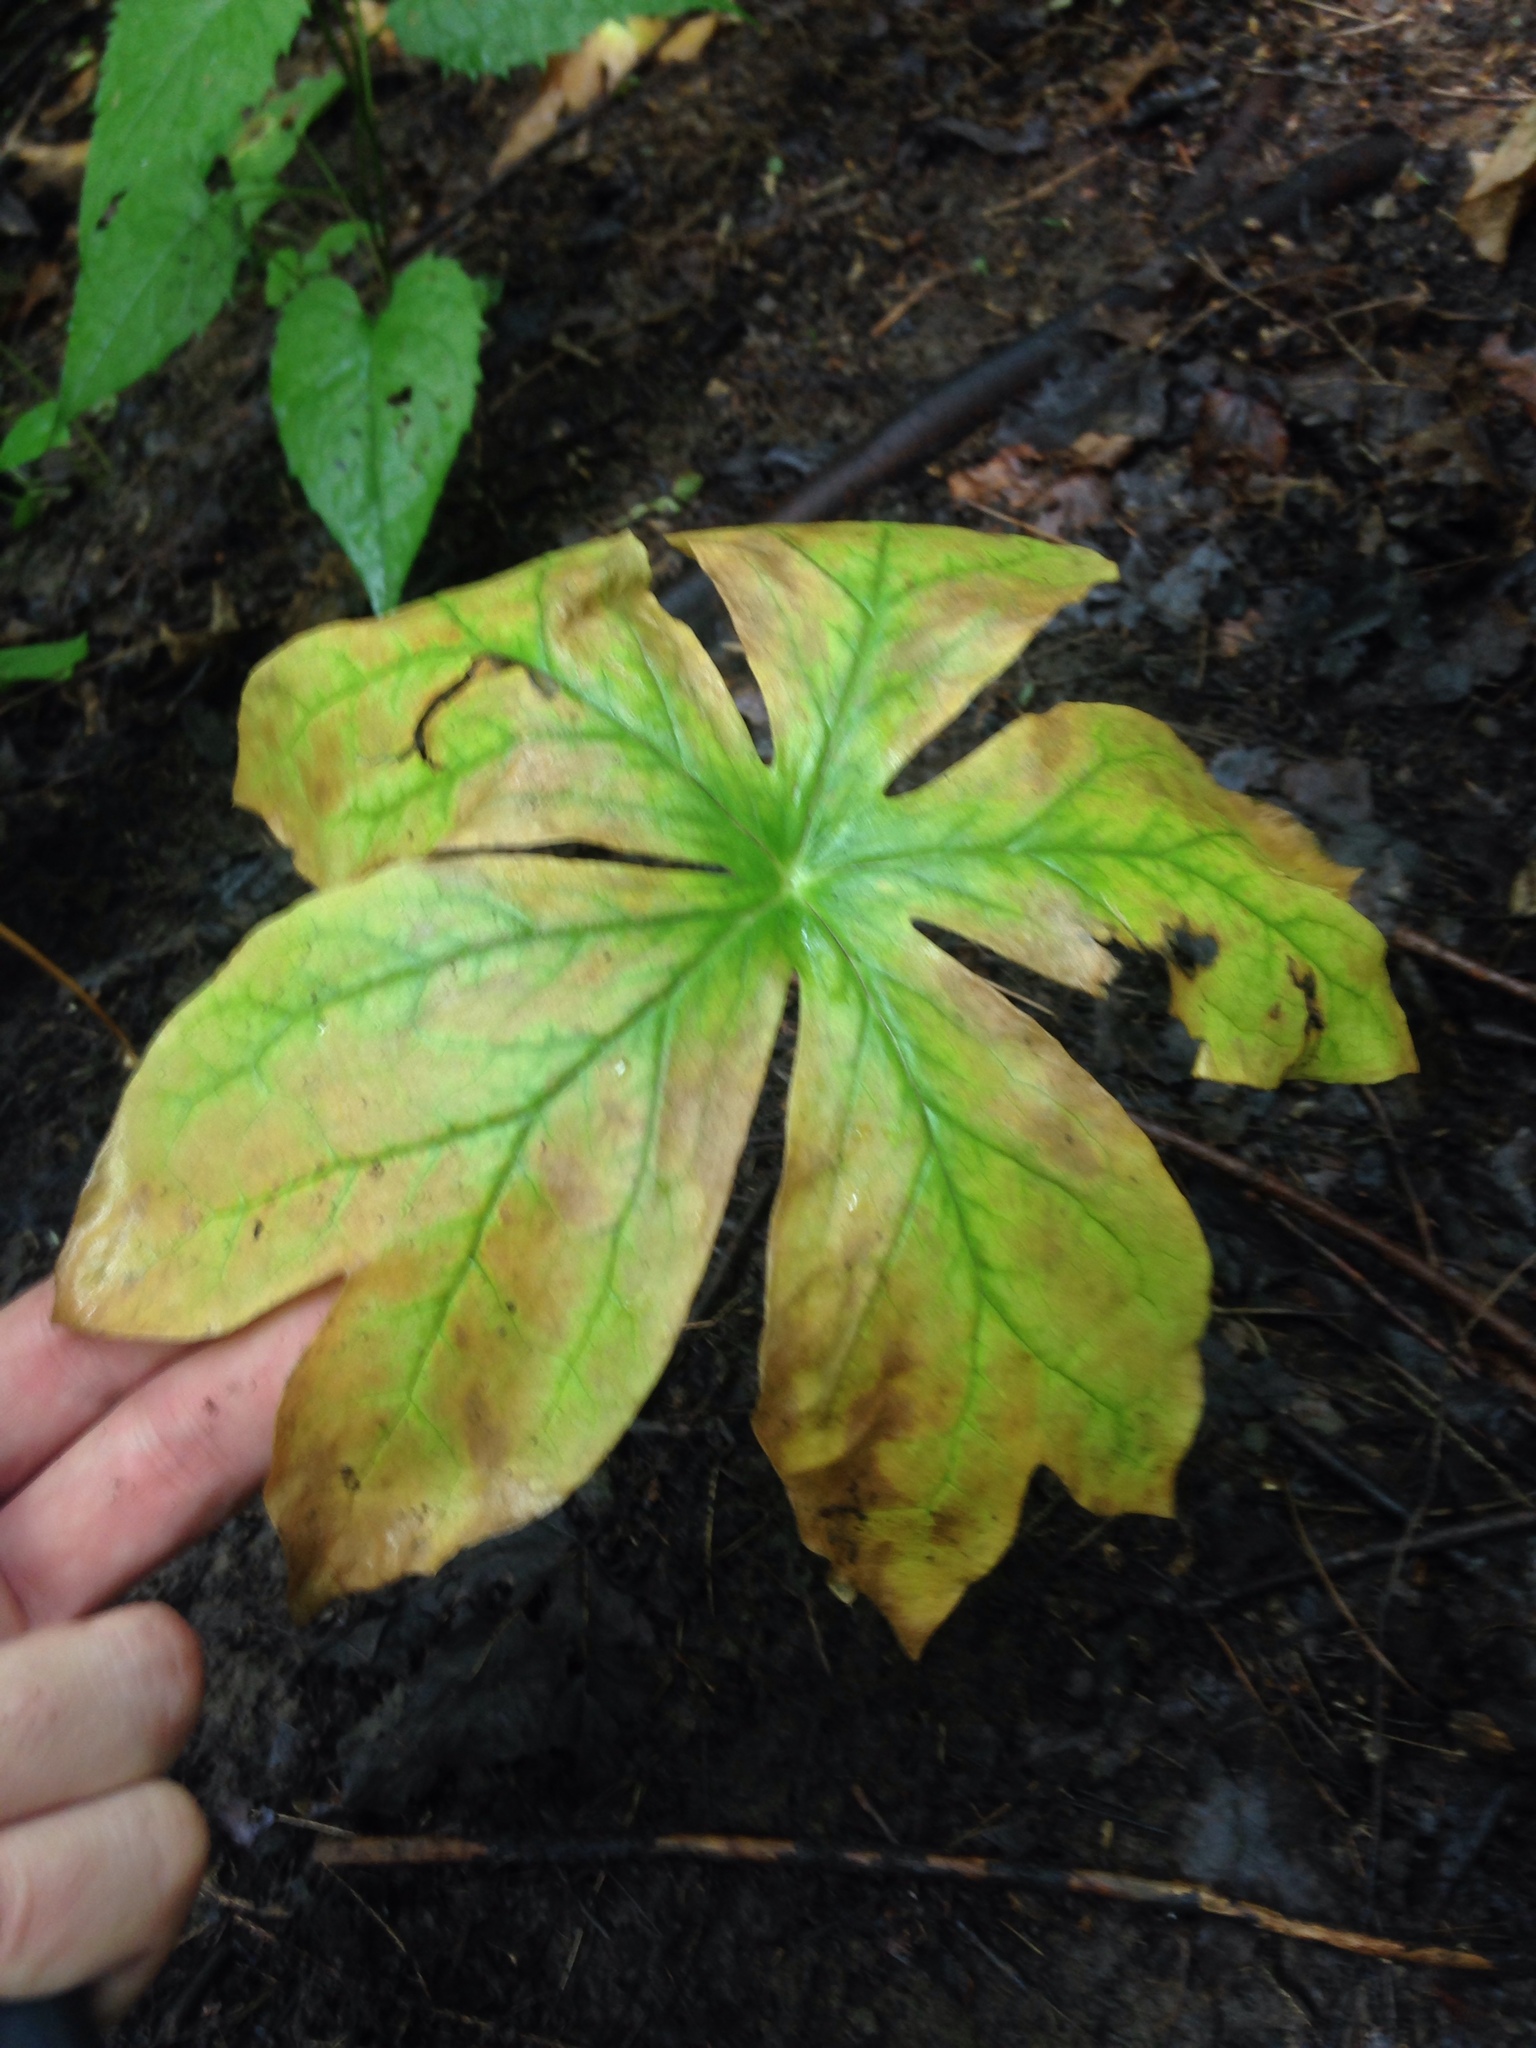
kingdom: Plantae
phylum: Tracheophyta
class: Magnoliopsida
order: Ranunculales
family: Berberidaceae
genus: Podophyllum
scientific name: Podophyllum peltatum
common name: Wild mandrake
